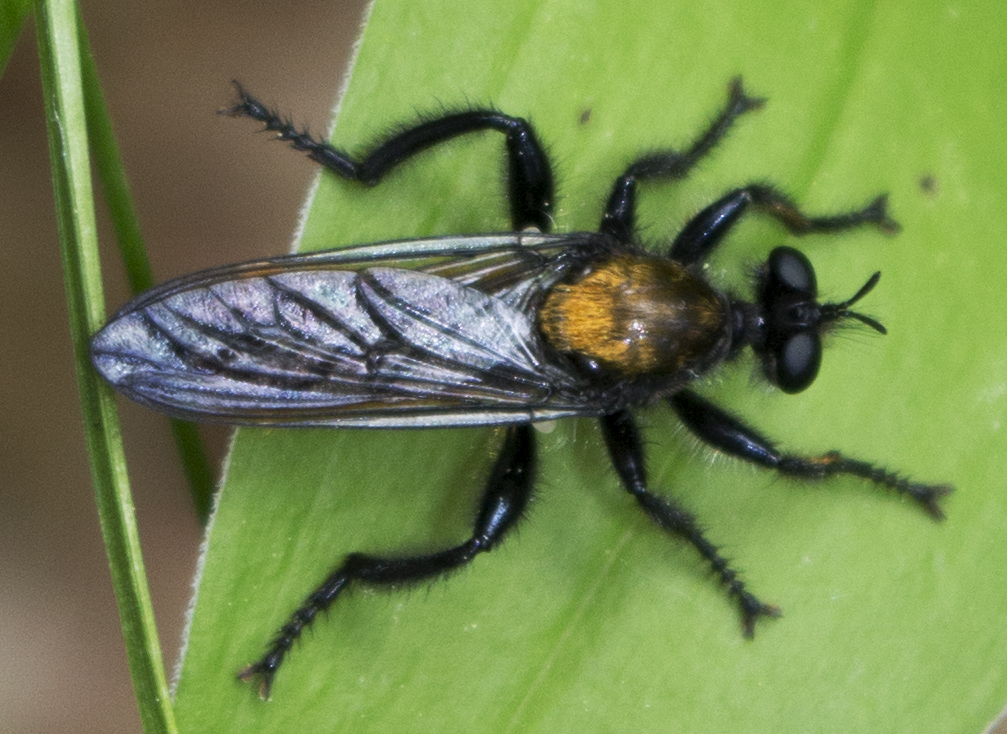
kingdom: Animalia
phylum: Arthropoda
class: Insecta
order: Diptera
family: Asilidae
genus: Laphria
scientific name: Laphria
